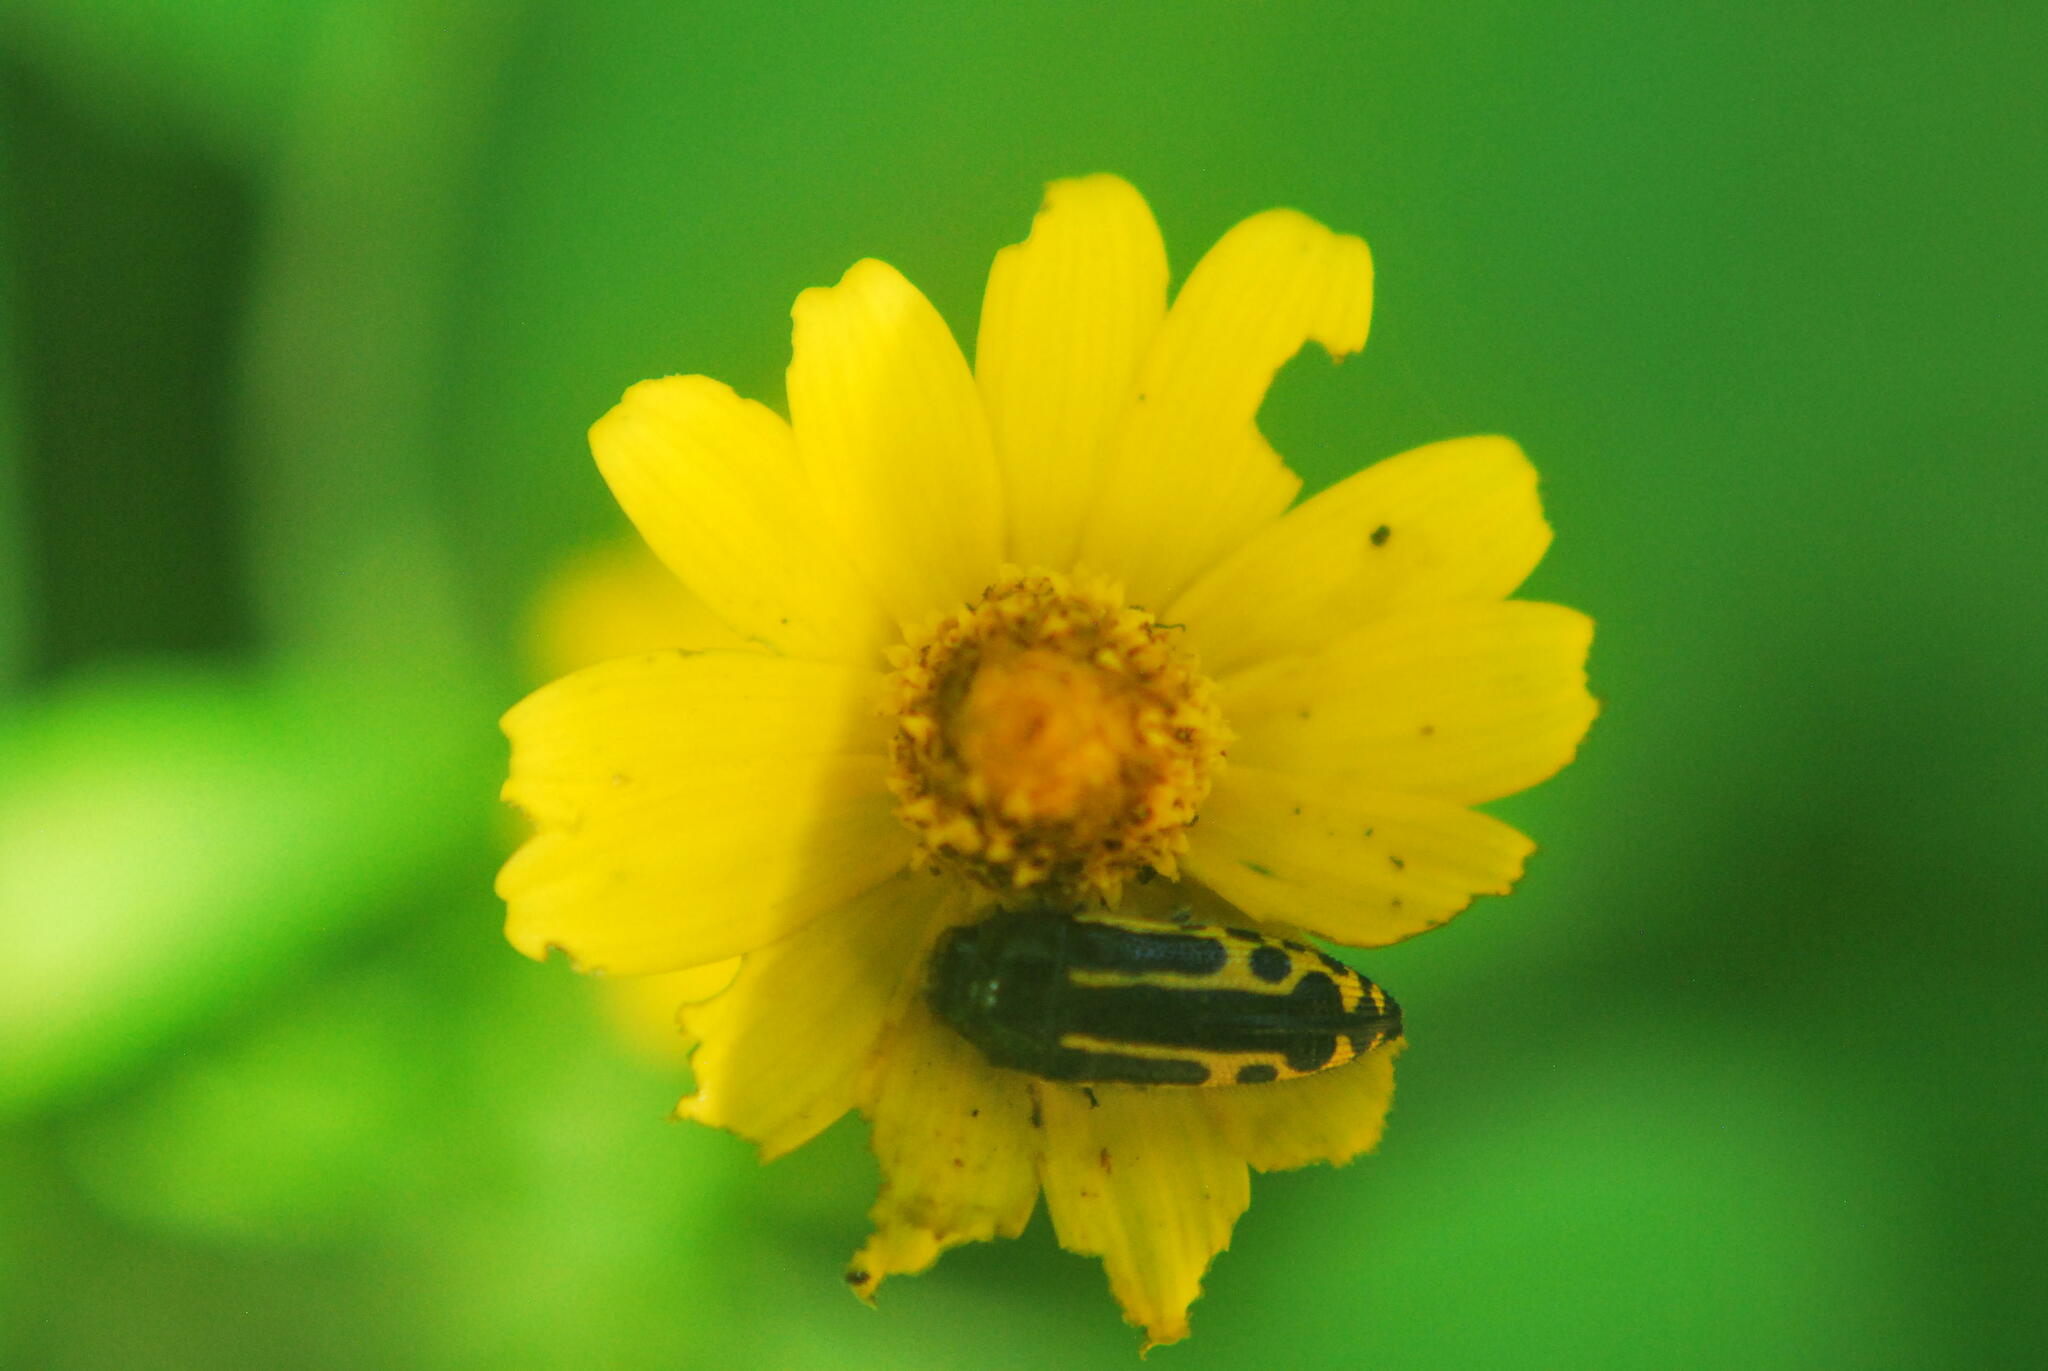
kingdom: Animalia
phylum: Arthropoda
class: Insecta
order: Coleoptera
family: Buprestidae
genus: Acmaeodera
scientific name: Acmaeodera scalaris
